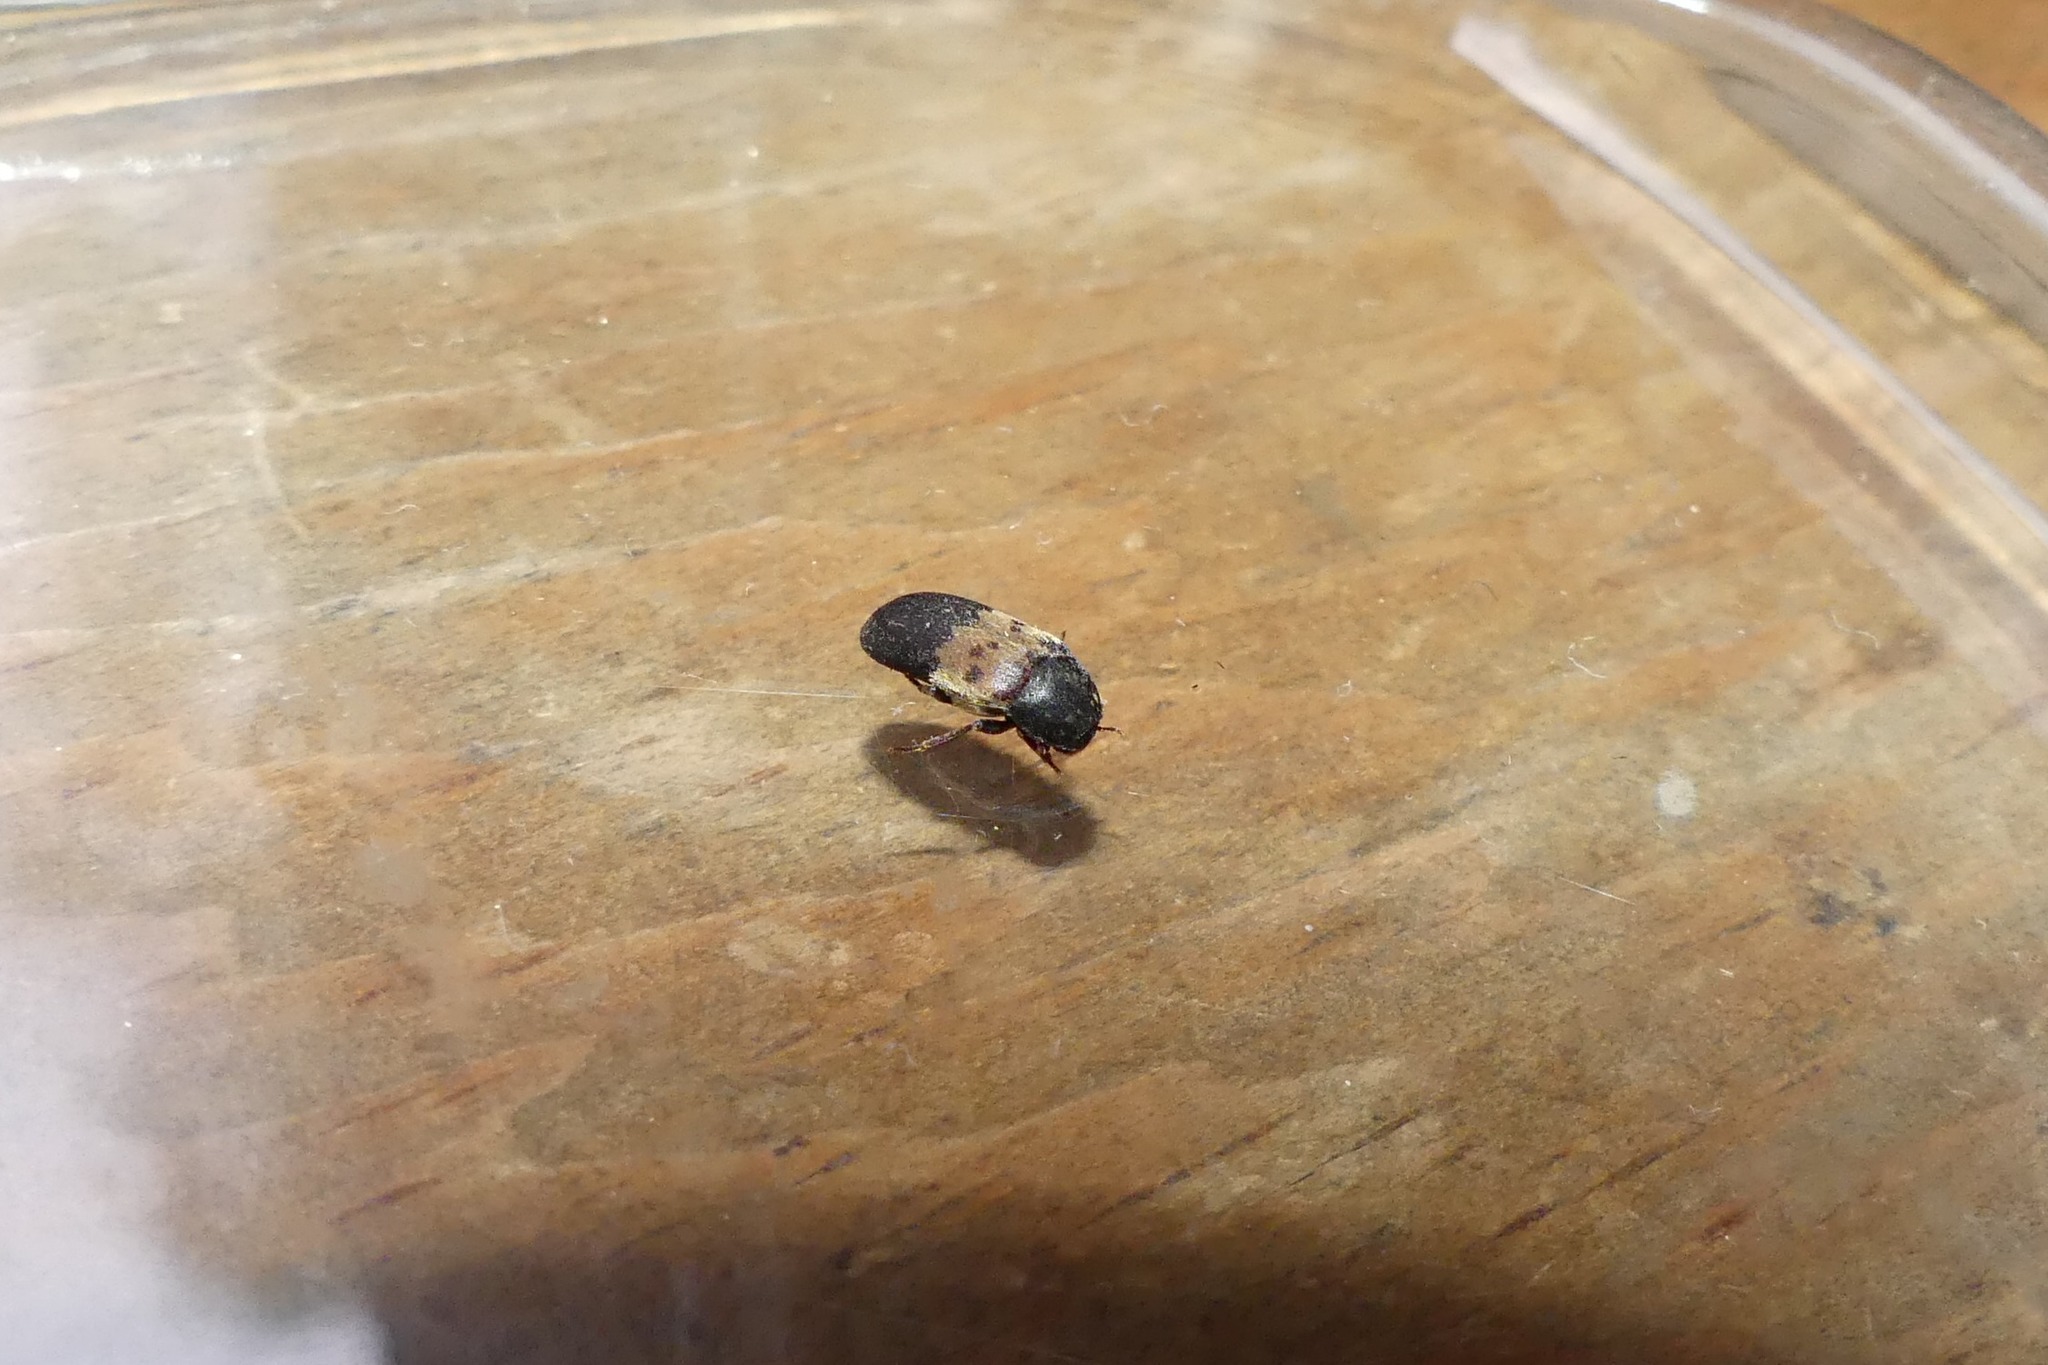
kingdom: Animalia
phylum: Arthropoda
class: Insecta
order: Coleoptera
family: Dermestidae
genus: Dermestes
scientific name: Dermestes lardarius
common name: Larder beetle
